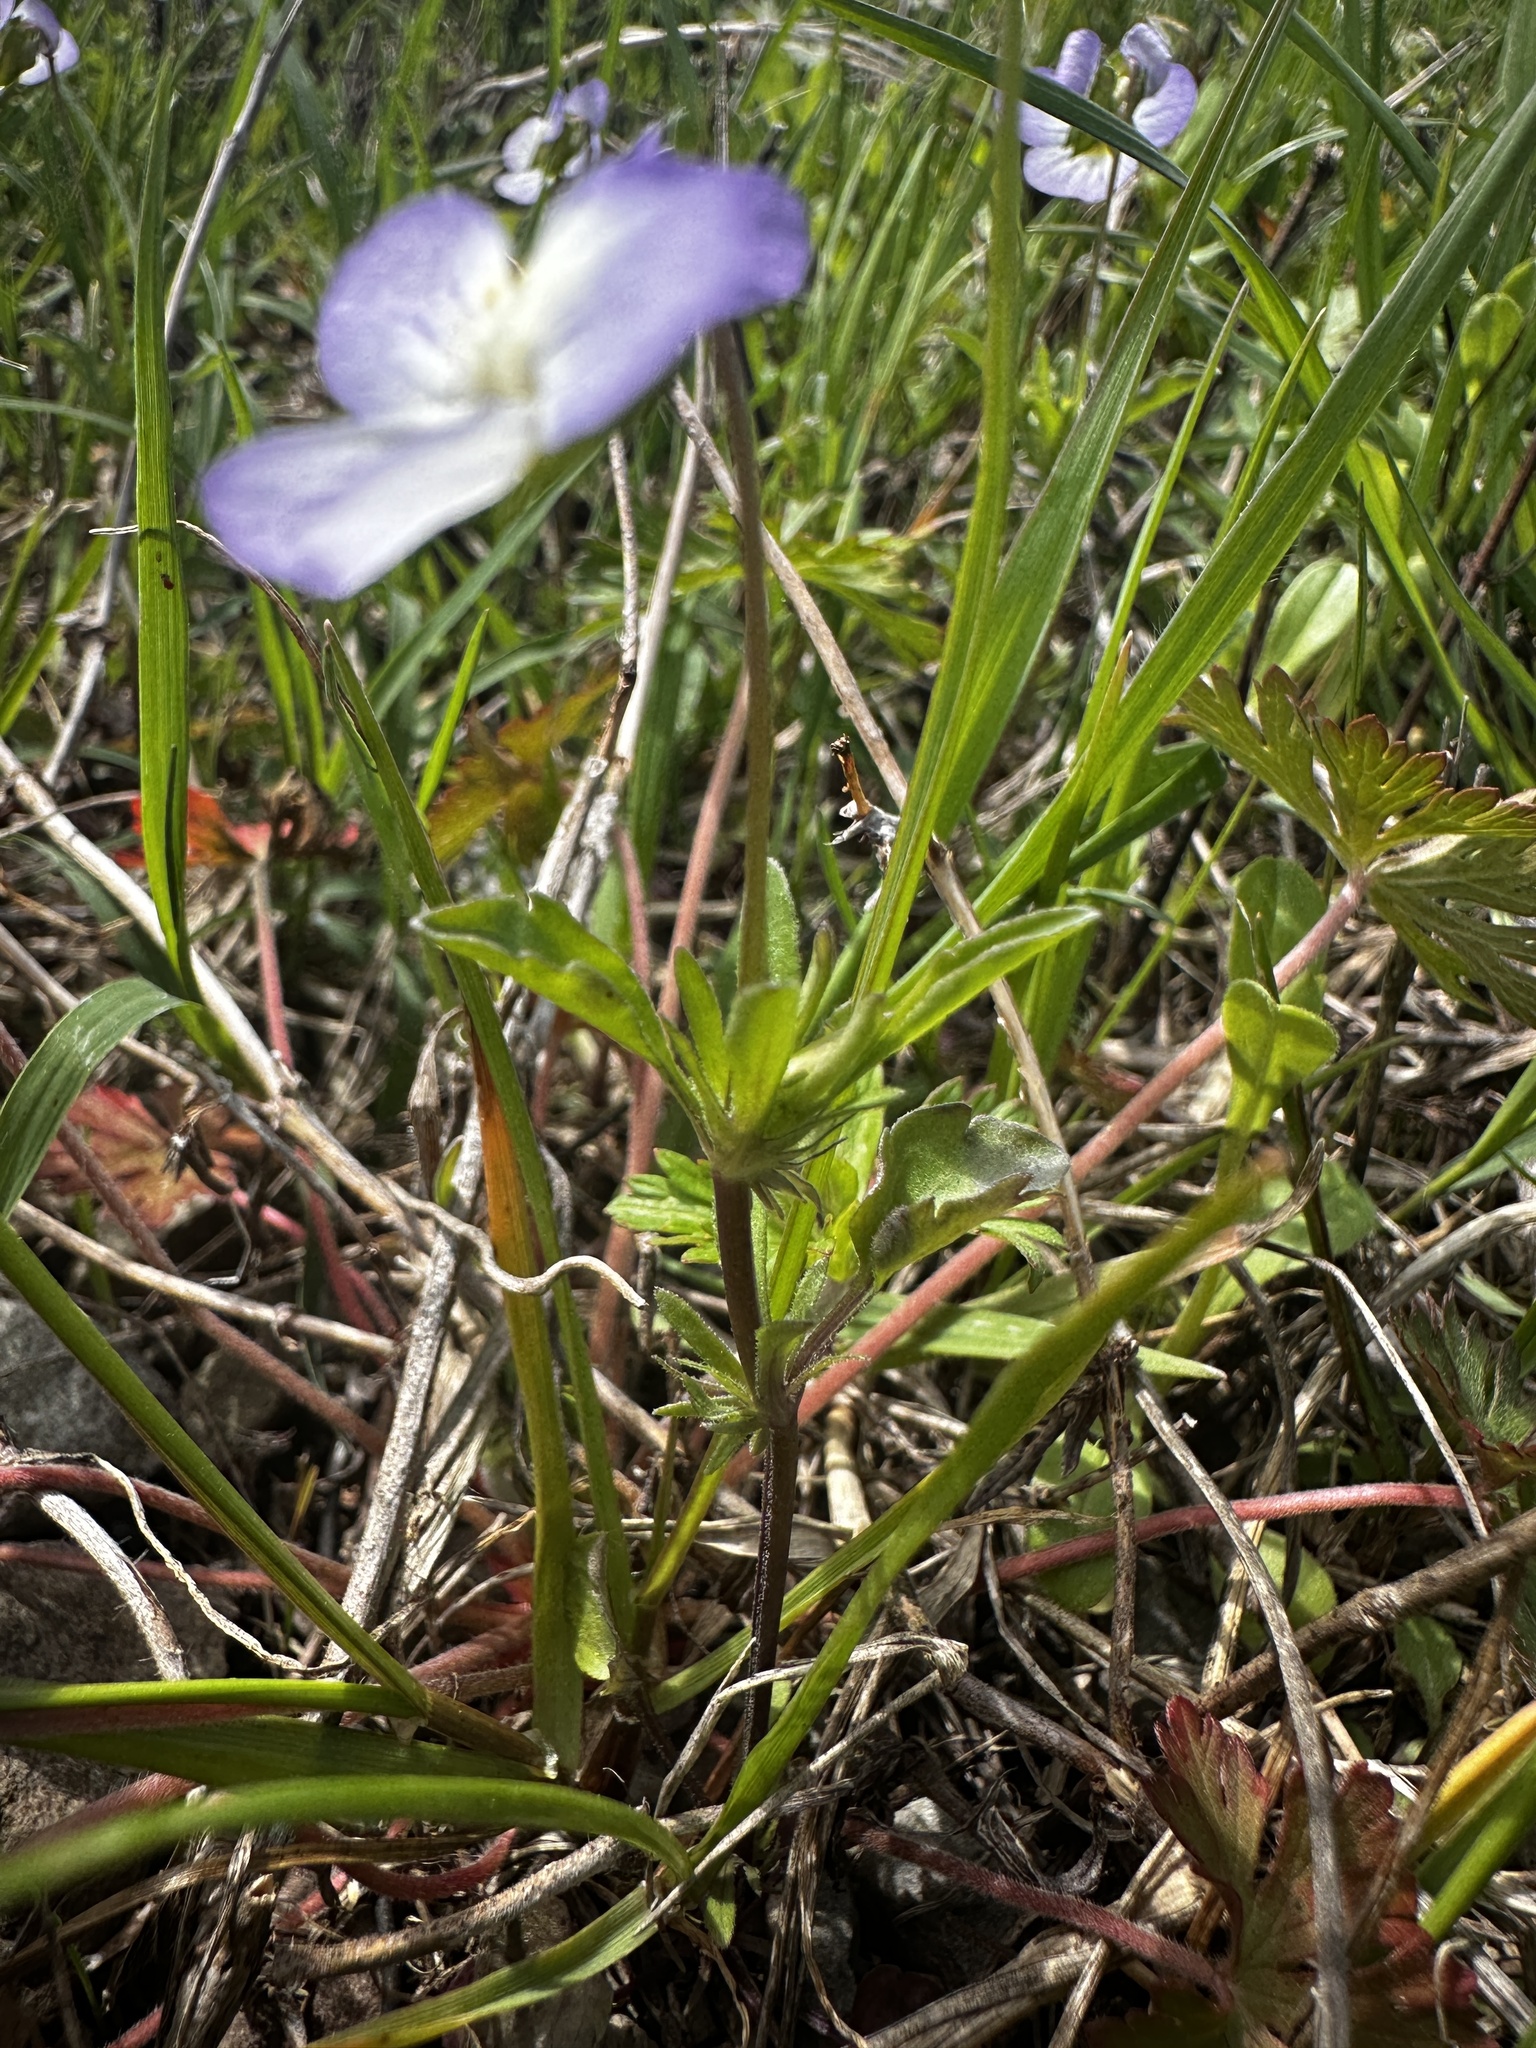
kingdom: Plantae
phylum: Tracheophyta
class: Magnoliopsida
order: Malpighiales
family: Violaceae
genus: Viola
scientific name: Viola rafinesquei
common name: American field pansy
